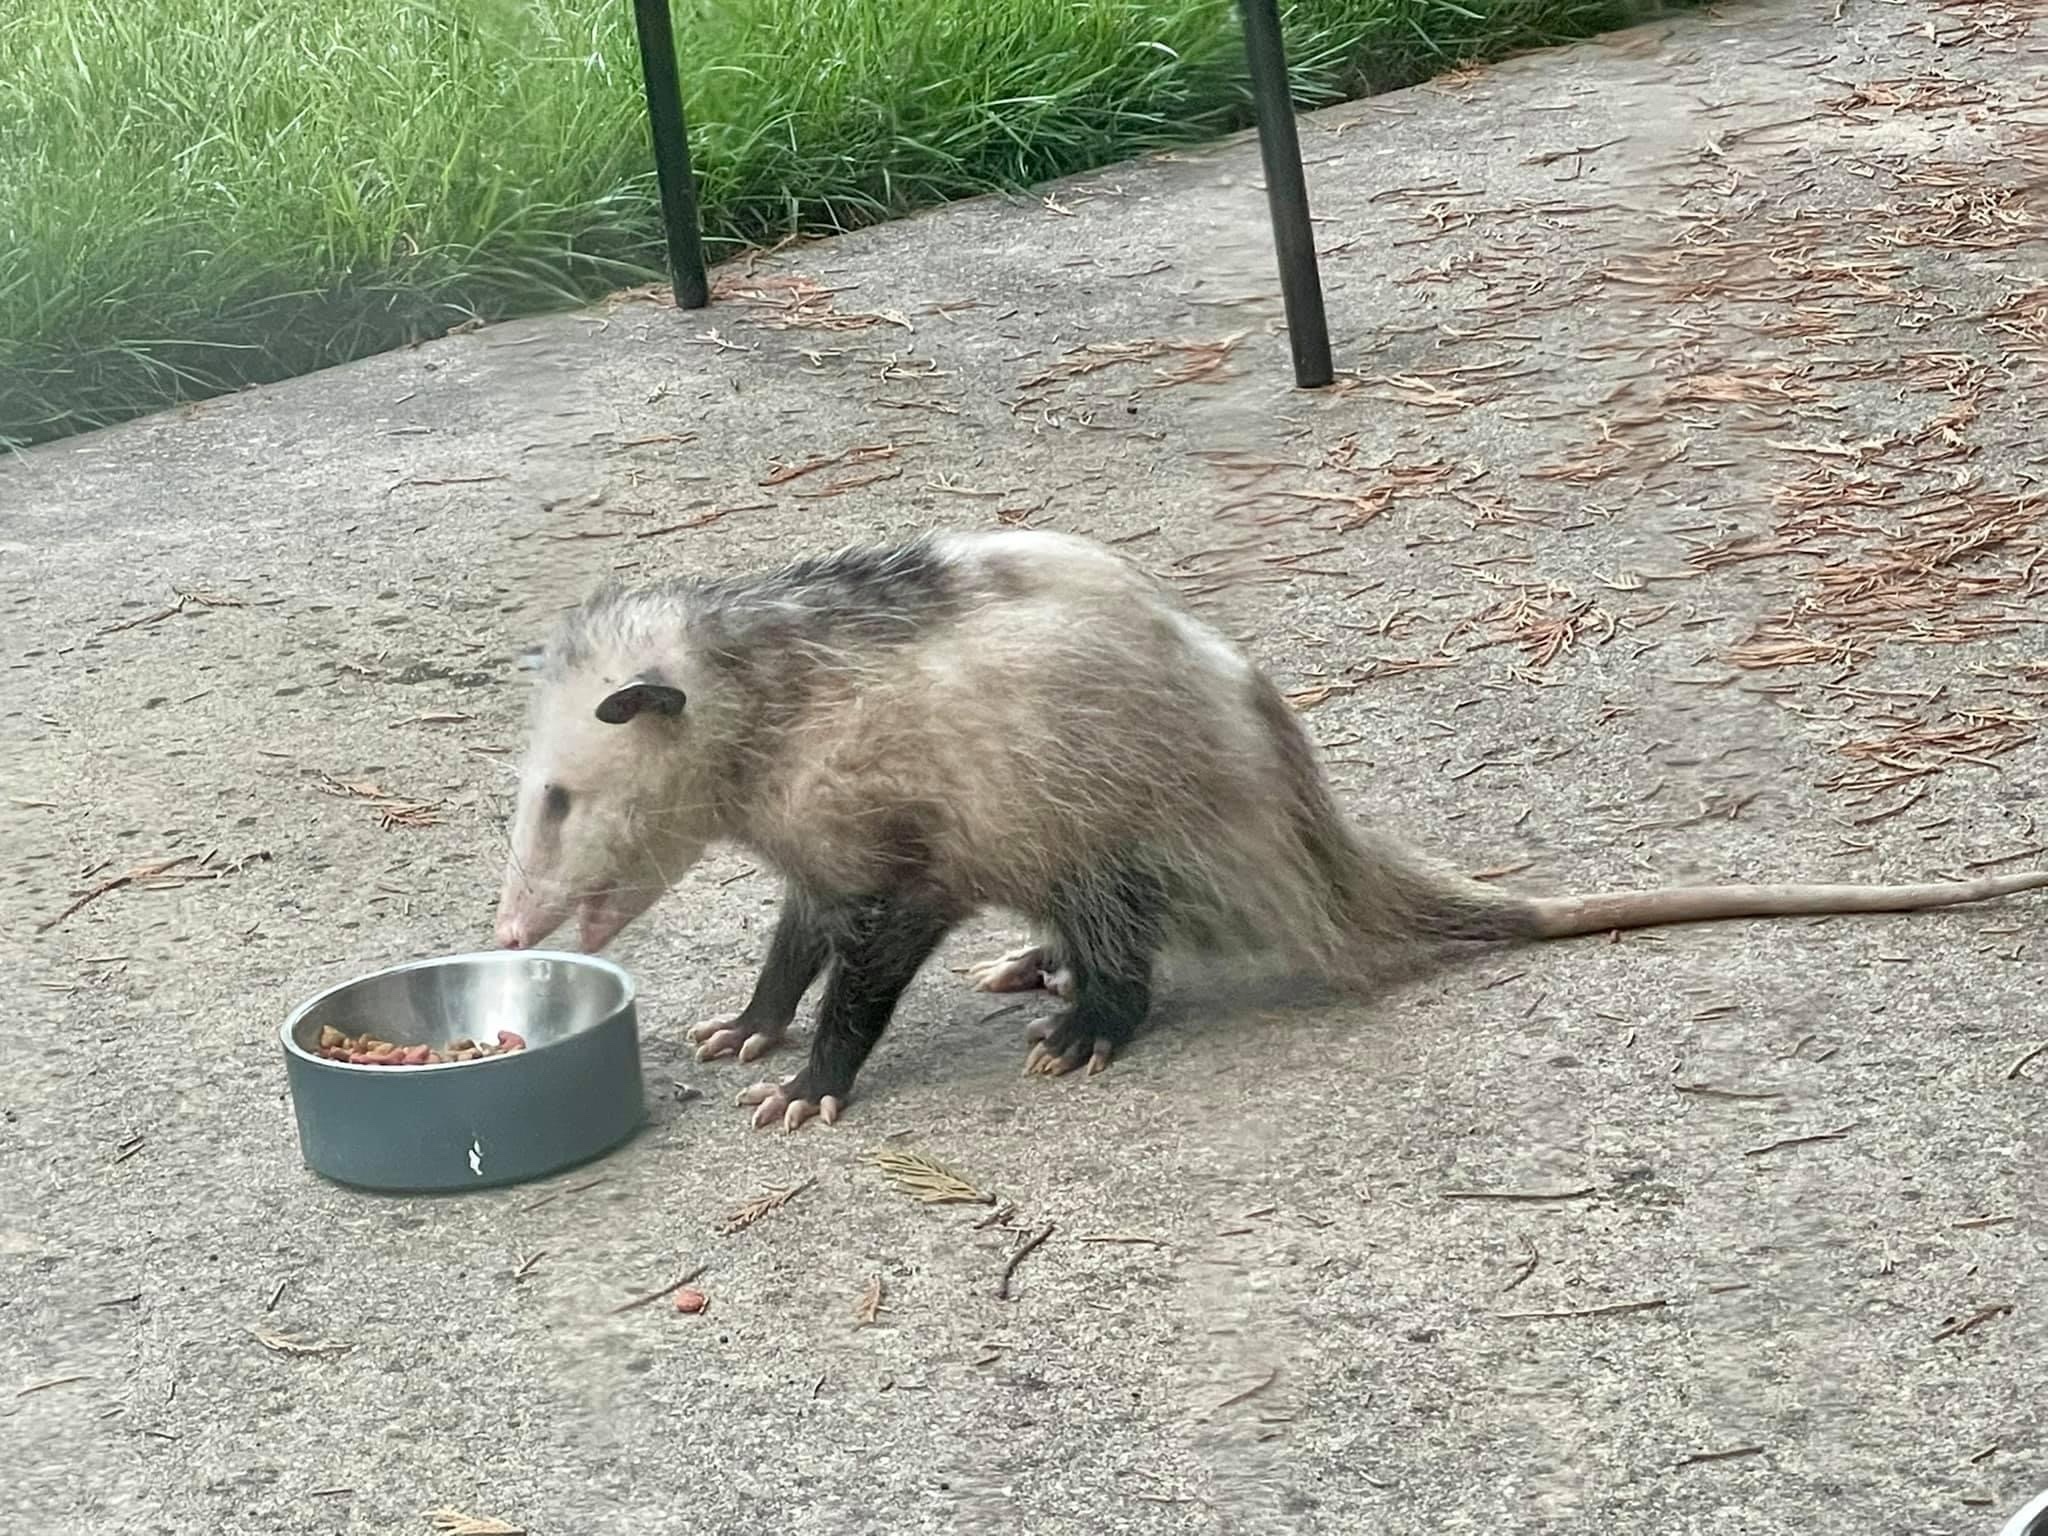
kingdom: Animalia
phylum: Chordata
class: Mammalia
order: Didelphimorphia
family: Didelphidae
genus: Didelphis
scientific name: Didelphis virginiana
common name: Virginia opossum
